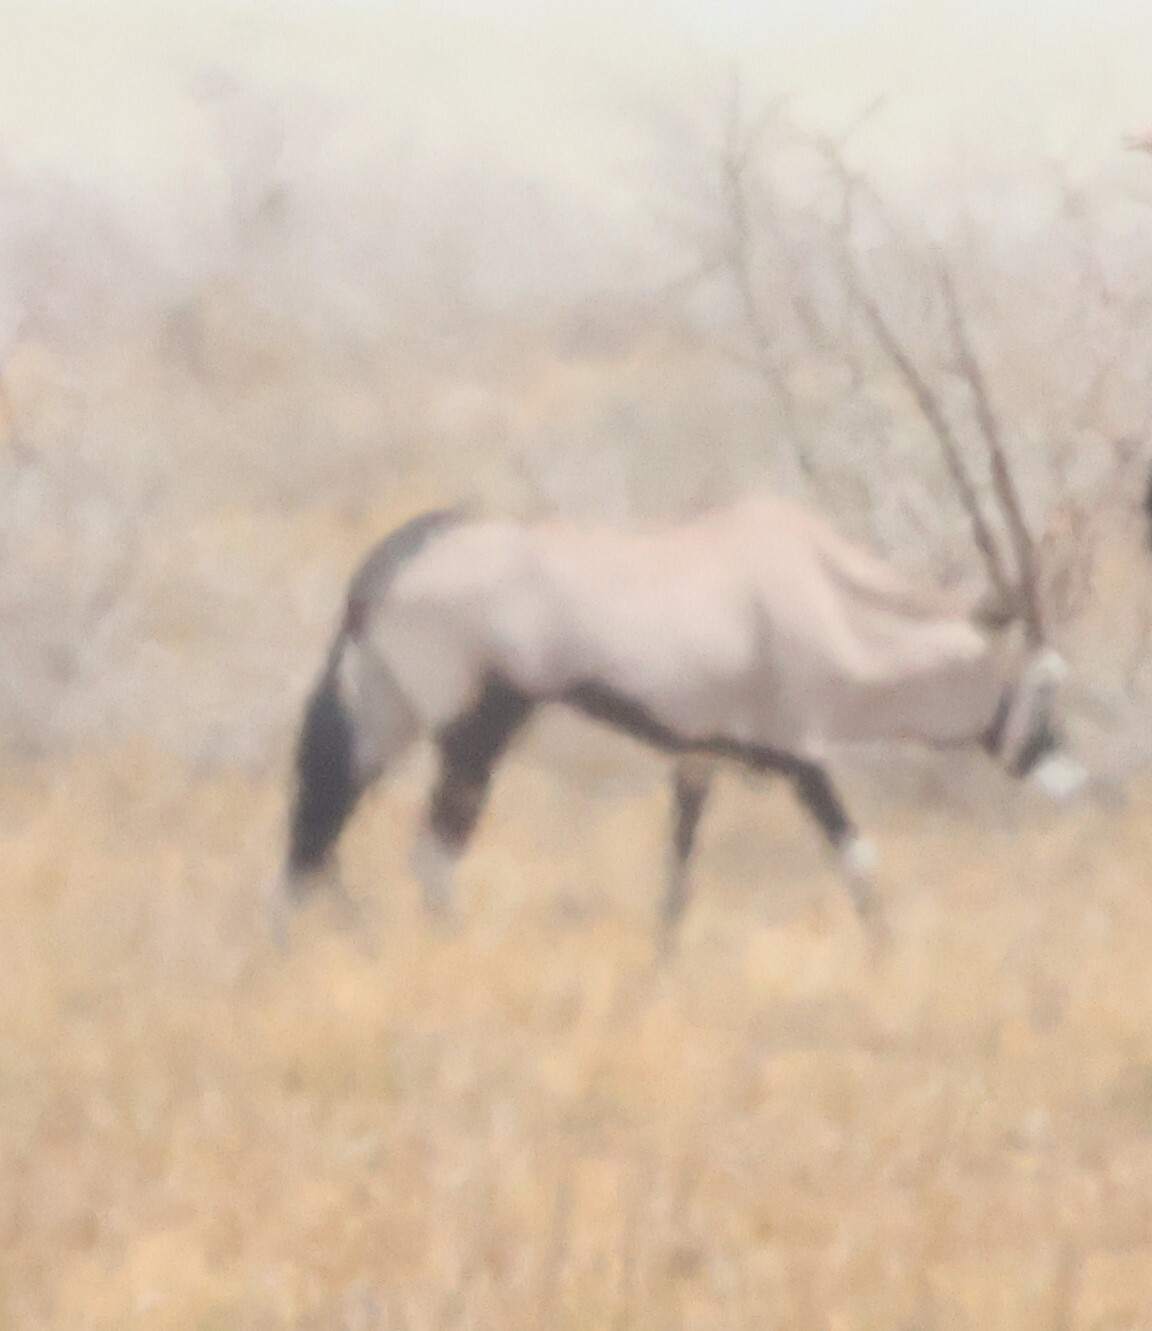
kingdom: Animalia
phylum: Chordata
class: Mammalia
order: Artiodactyla
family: Bovidae
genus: Oryx
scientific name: Oryx gazella
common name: Gemsbok
